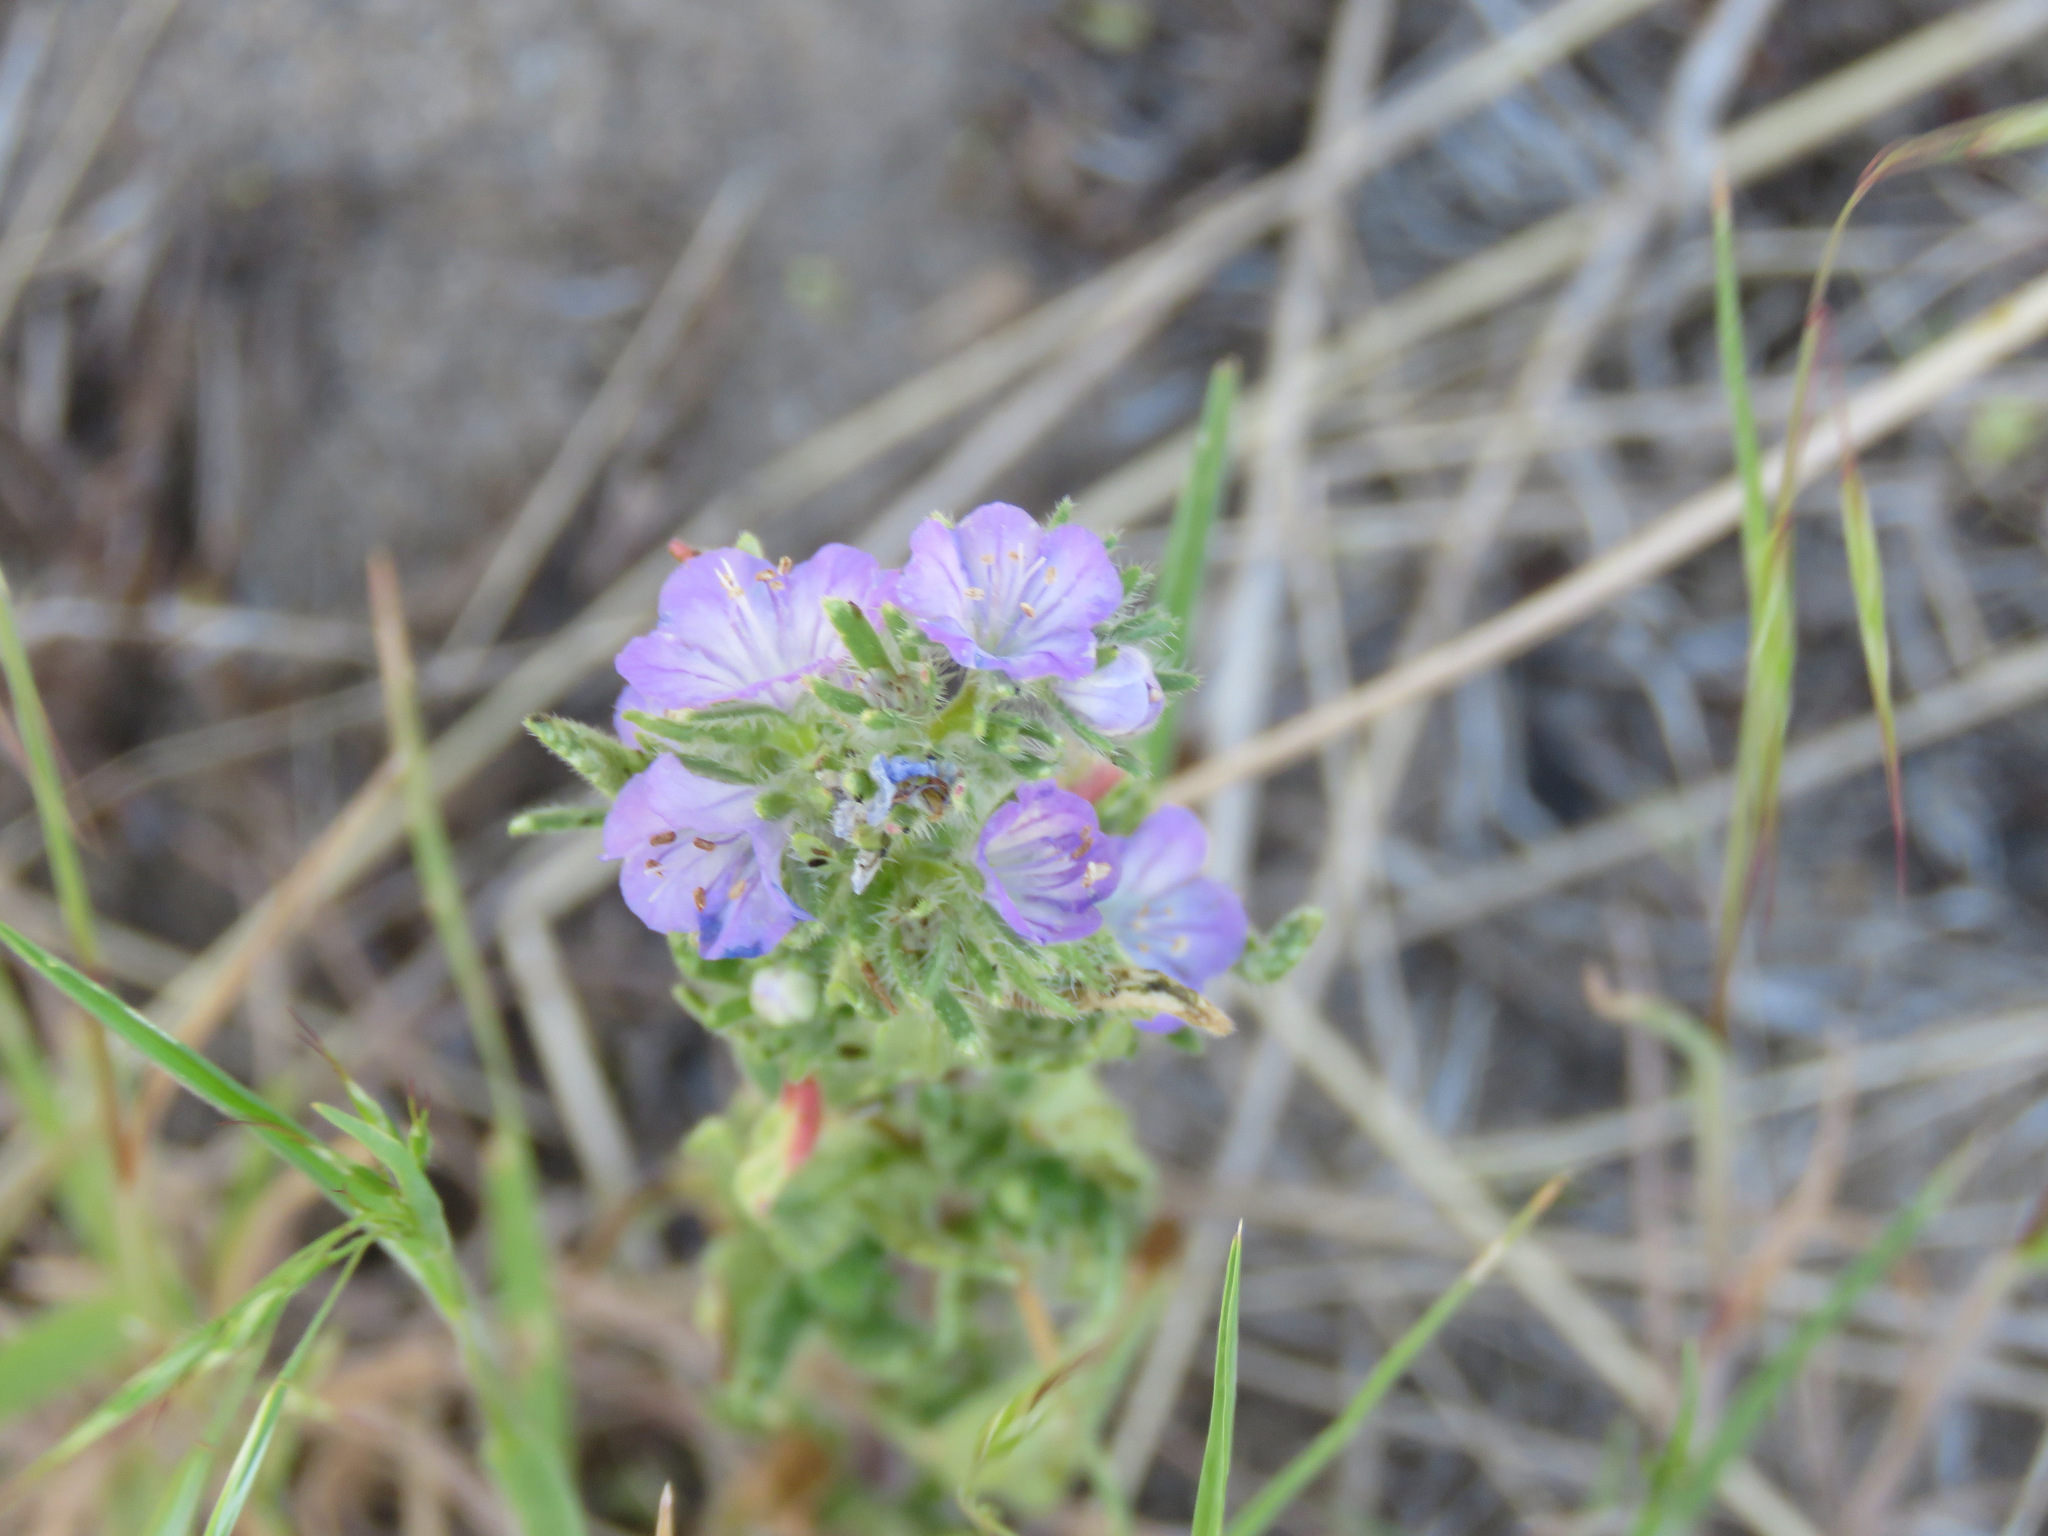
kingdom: Plantae
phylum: Tracheophyta
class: Magnoliopsida
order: Boraginales
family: Hydrophyllaceae
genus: Phacelia
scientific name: Phacelia linearis
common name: Linear-leaved phacelia
